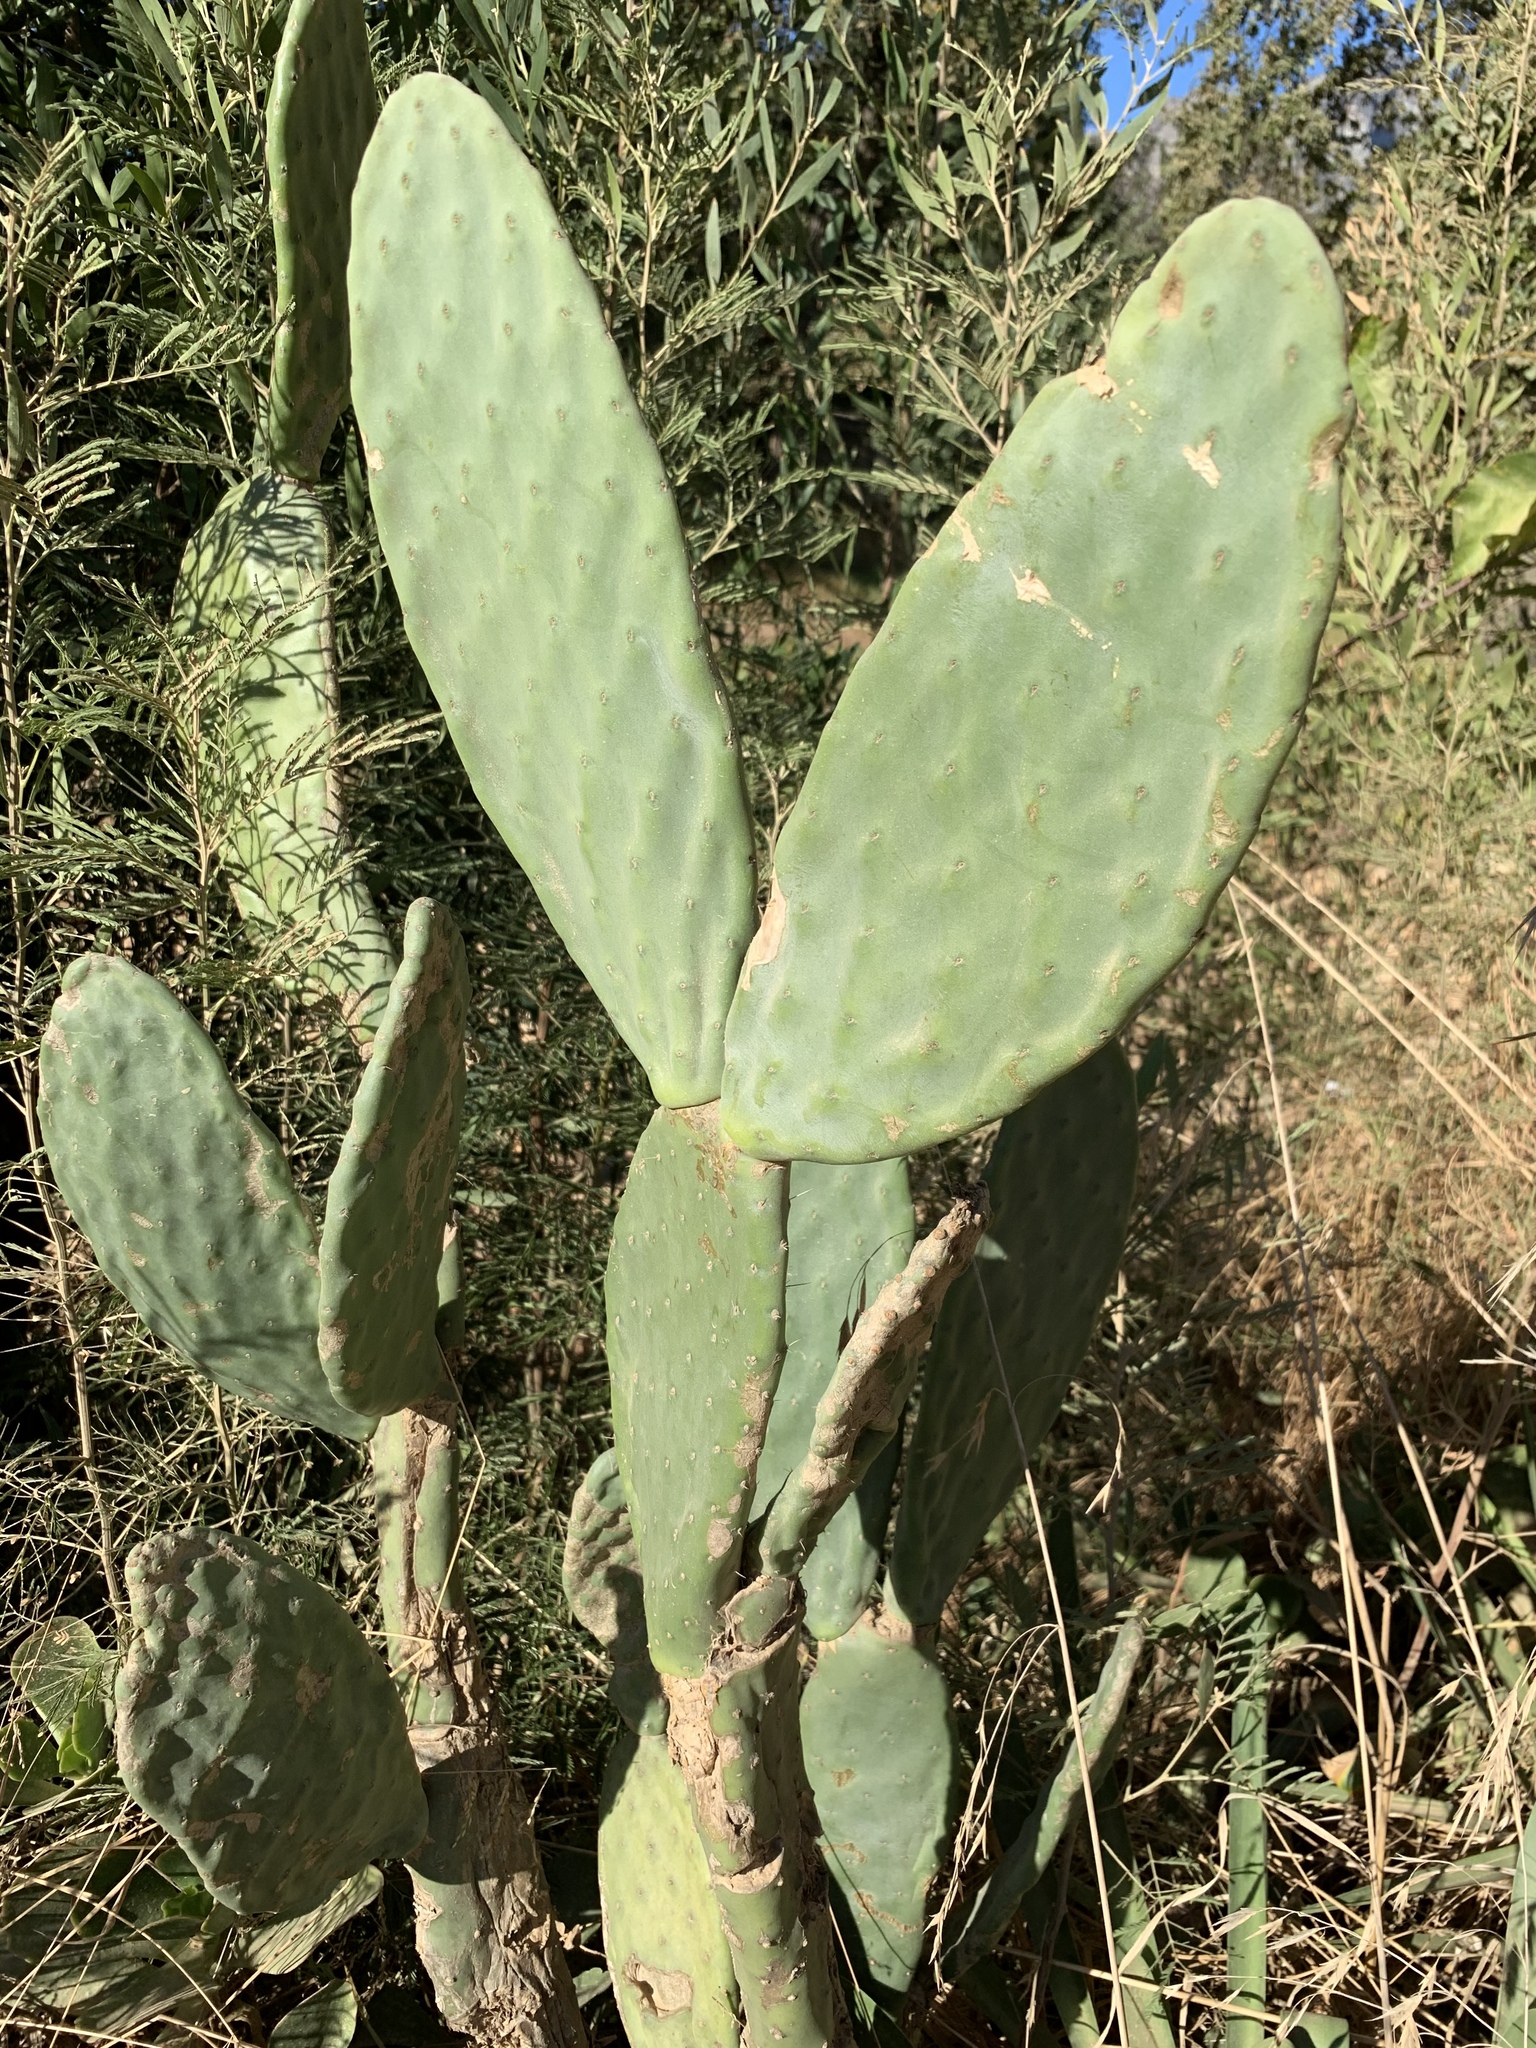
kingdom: Plantae
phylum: Tracheophyta
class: Magnoliopsida
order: Caryophyllales
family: Cactaceae
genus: Opuntia
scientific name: Opuntia ficus-indica
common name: Barbary fig
